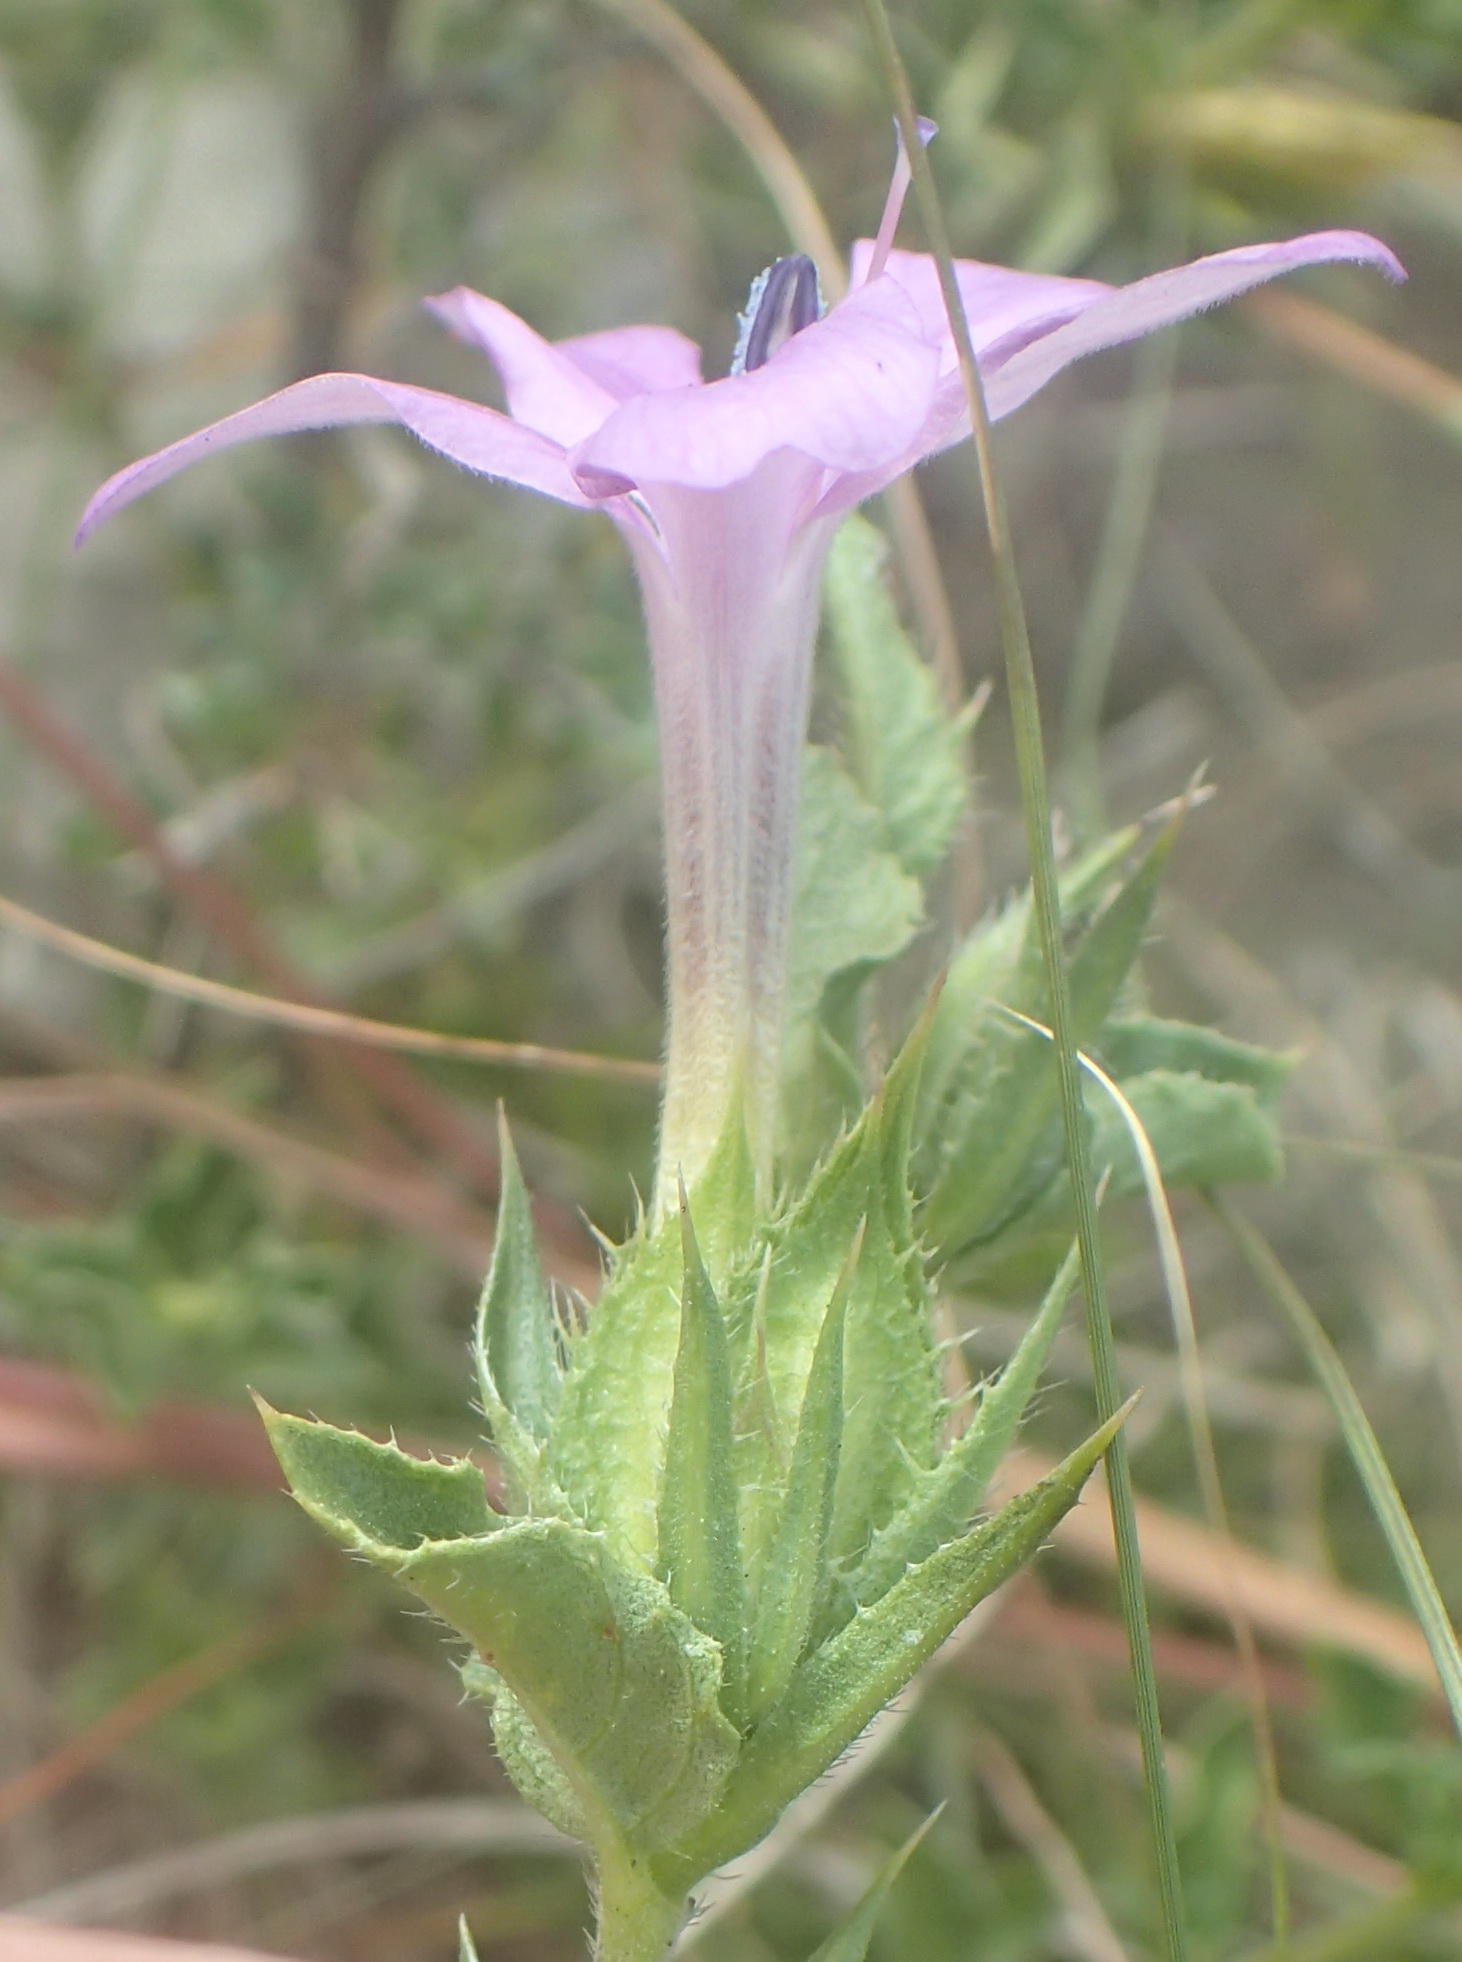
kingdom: Plantae
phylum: Tracheophyta
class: Magnoliopsida
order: Lamiales
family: Acanthaceae
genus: Barleria
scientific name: Barleria pungens
